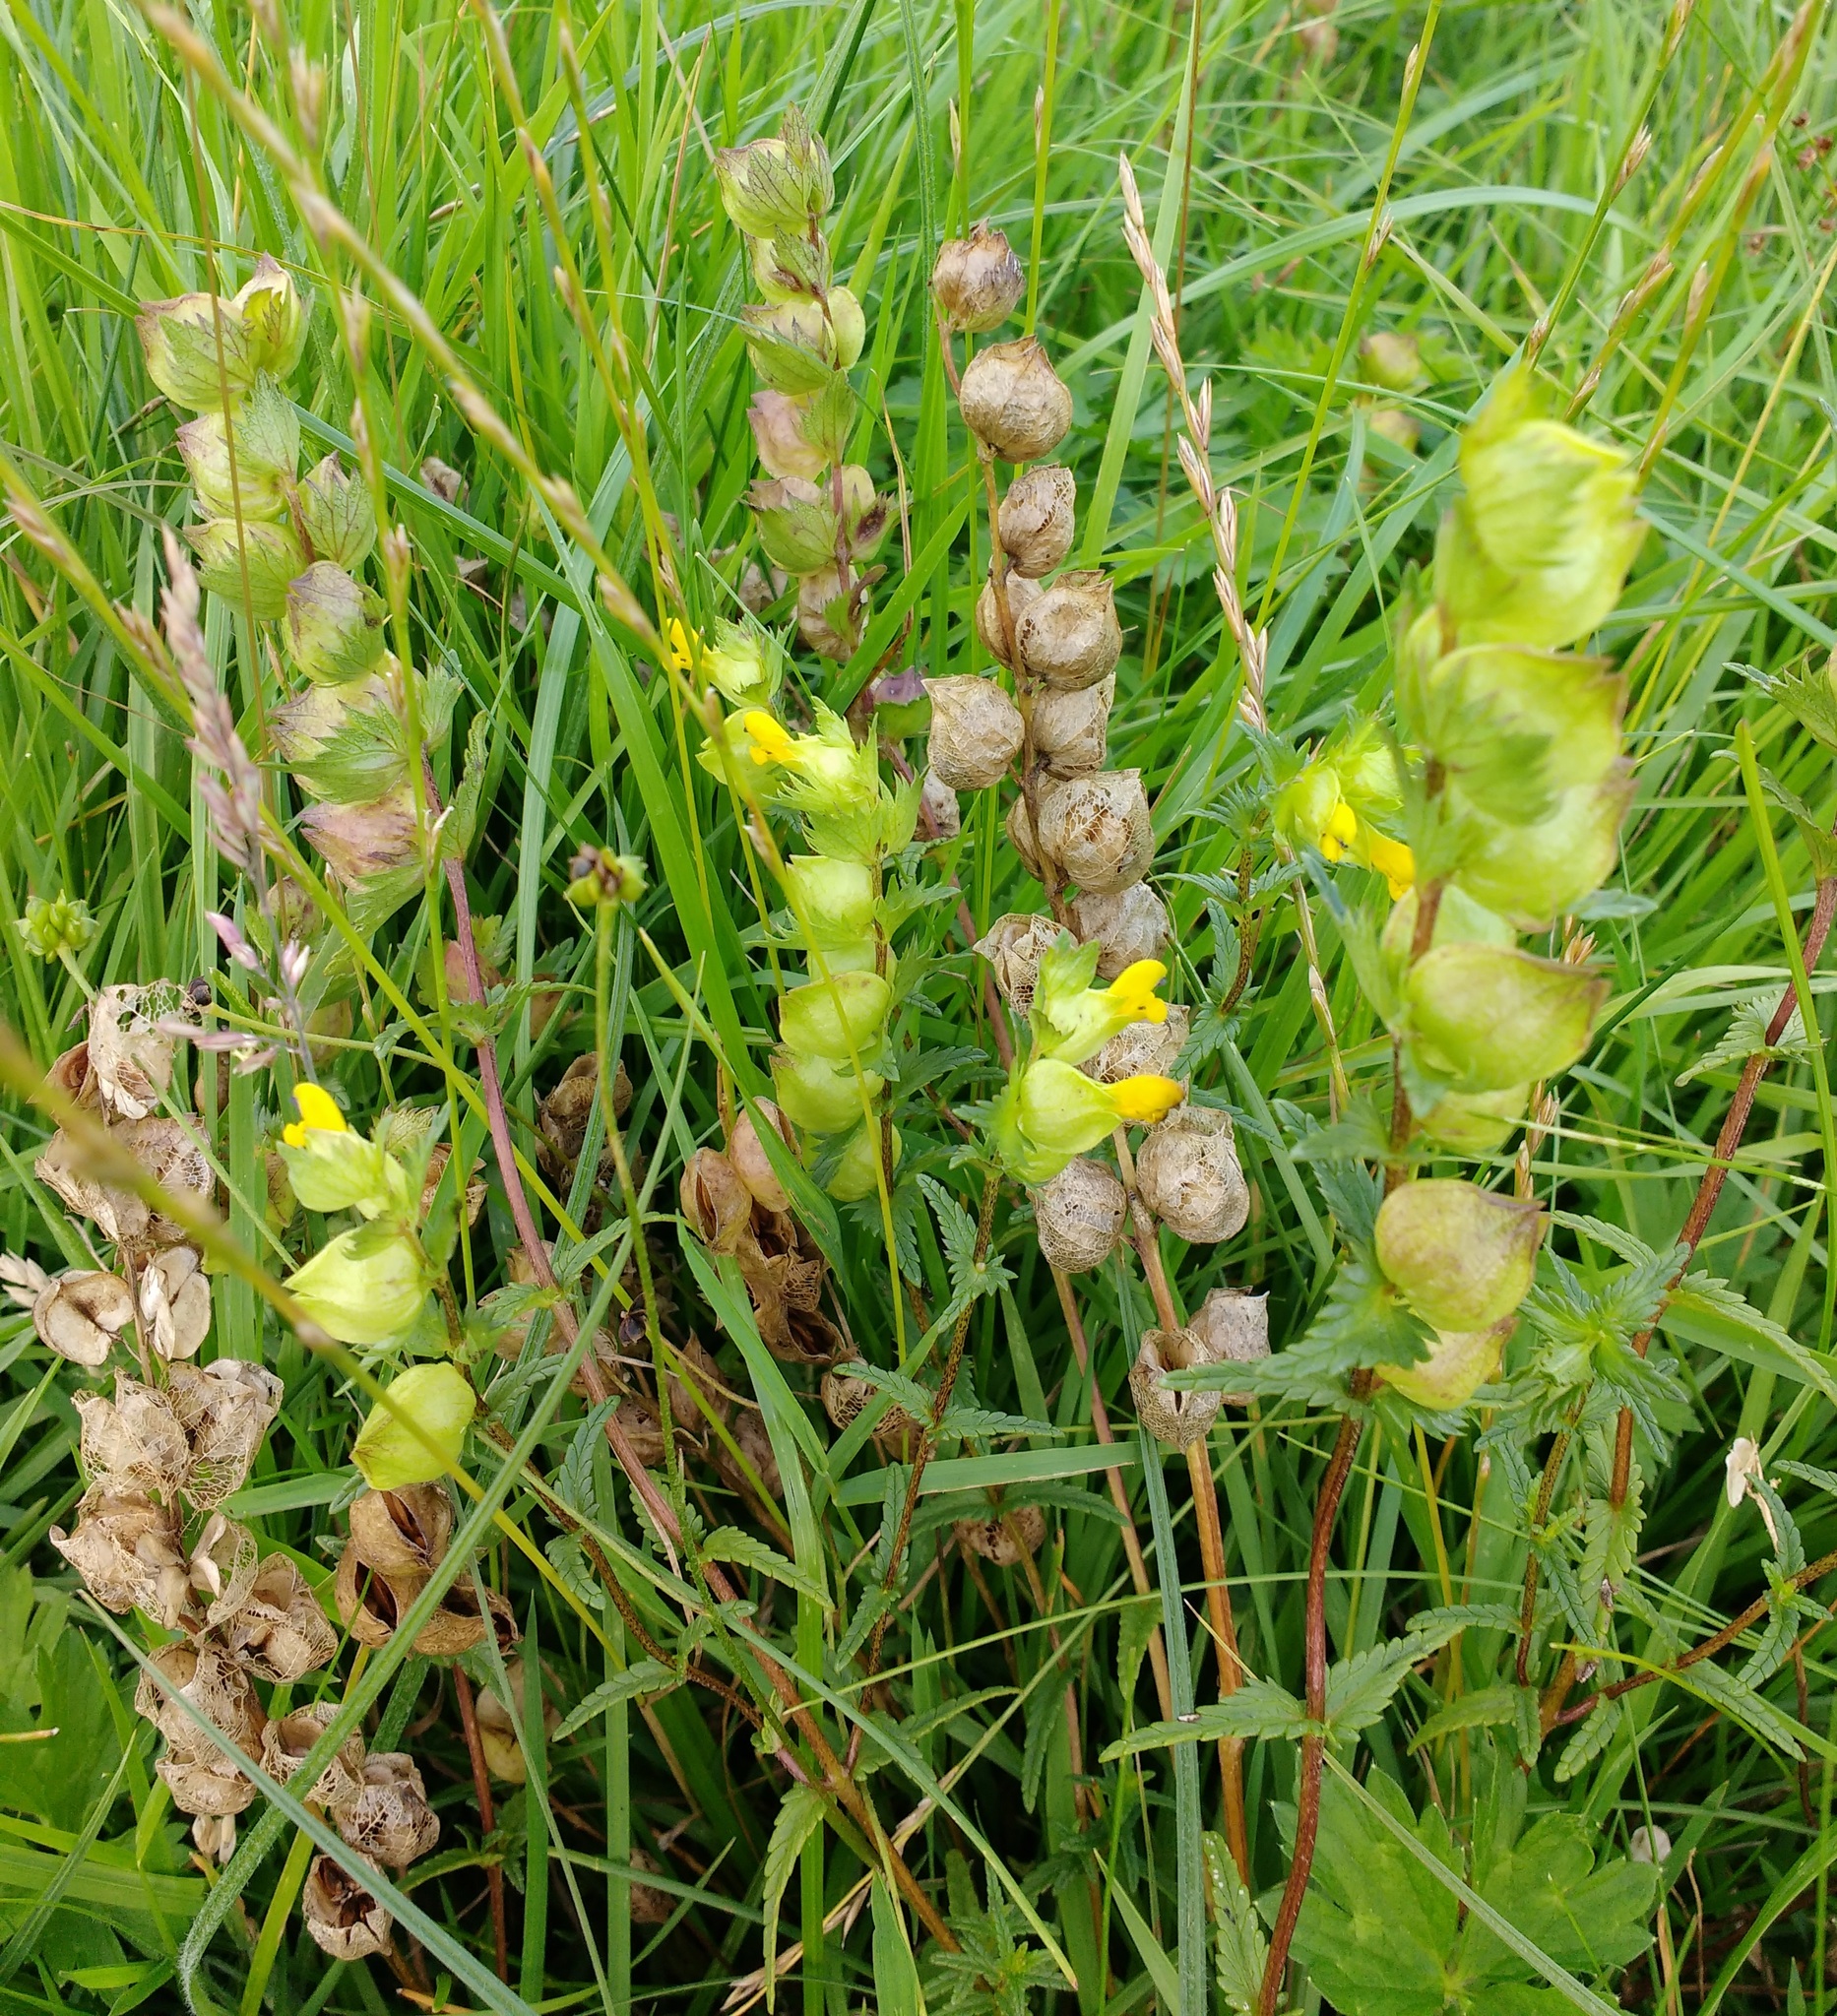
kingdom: Plantae
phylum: Tracheophyta
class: Magnoliopsida
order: Lamiales
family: Orobanchaceae
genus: Rhinanthus
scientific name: Rhinanthus minor
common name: Yellow-rattle
